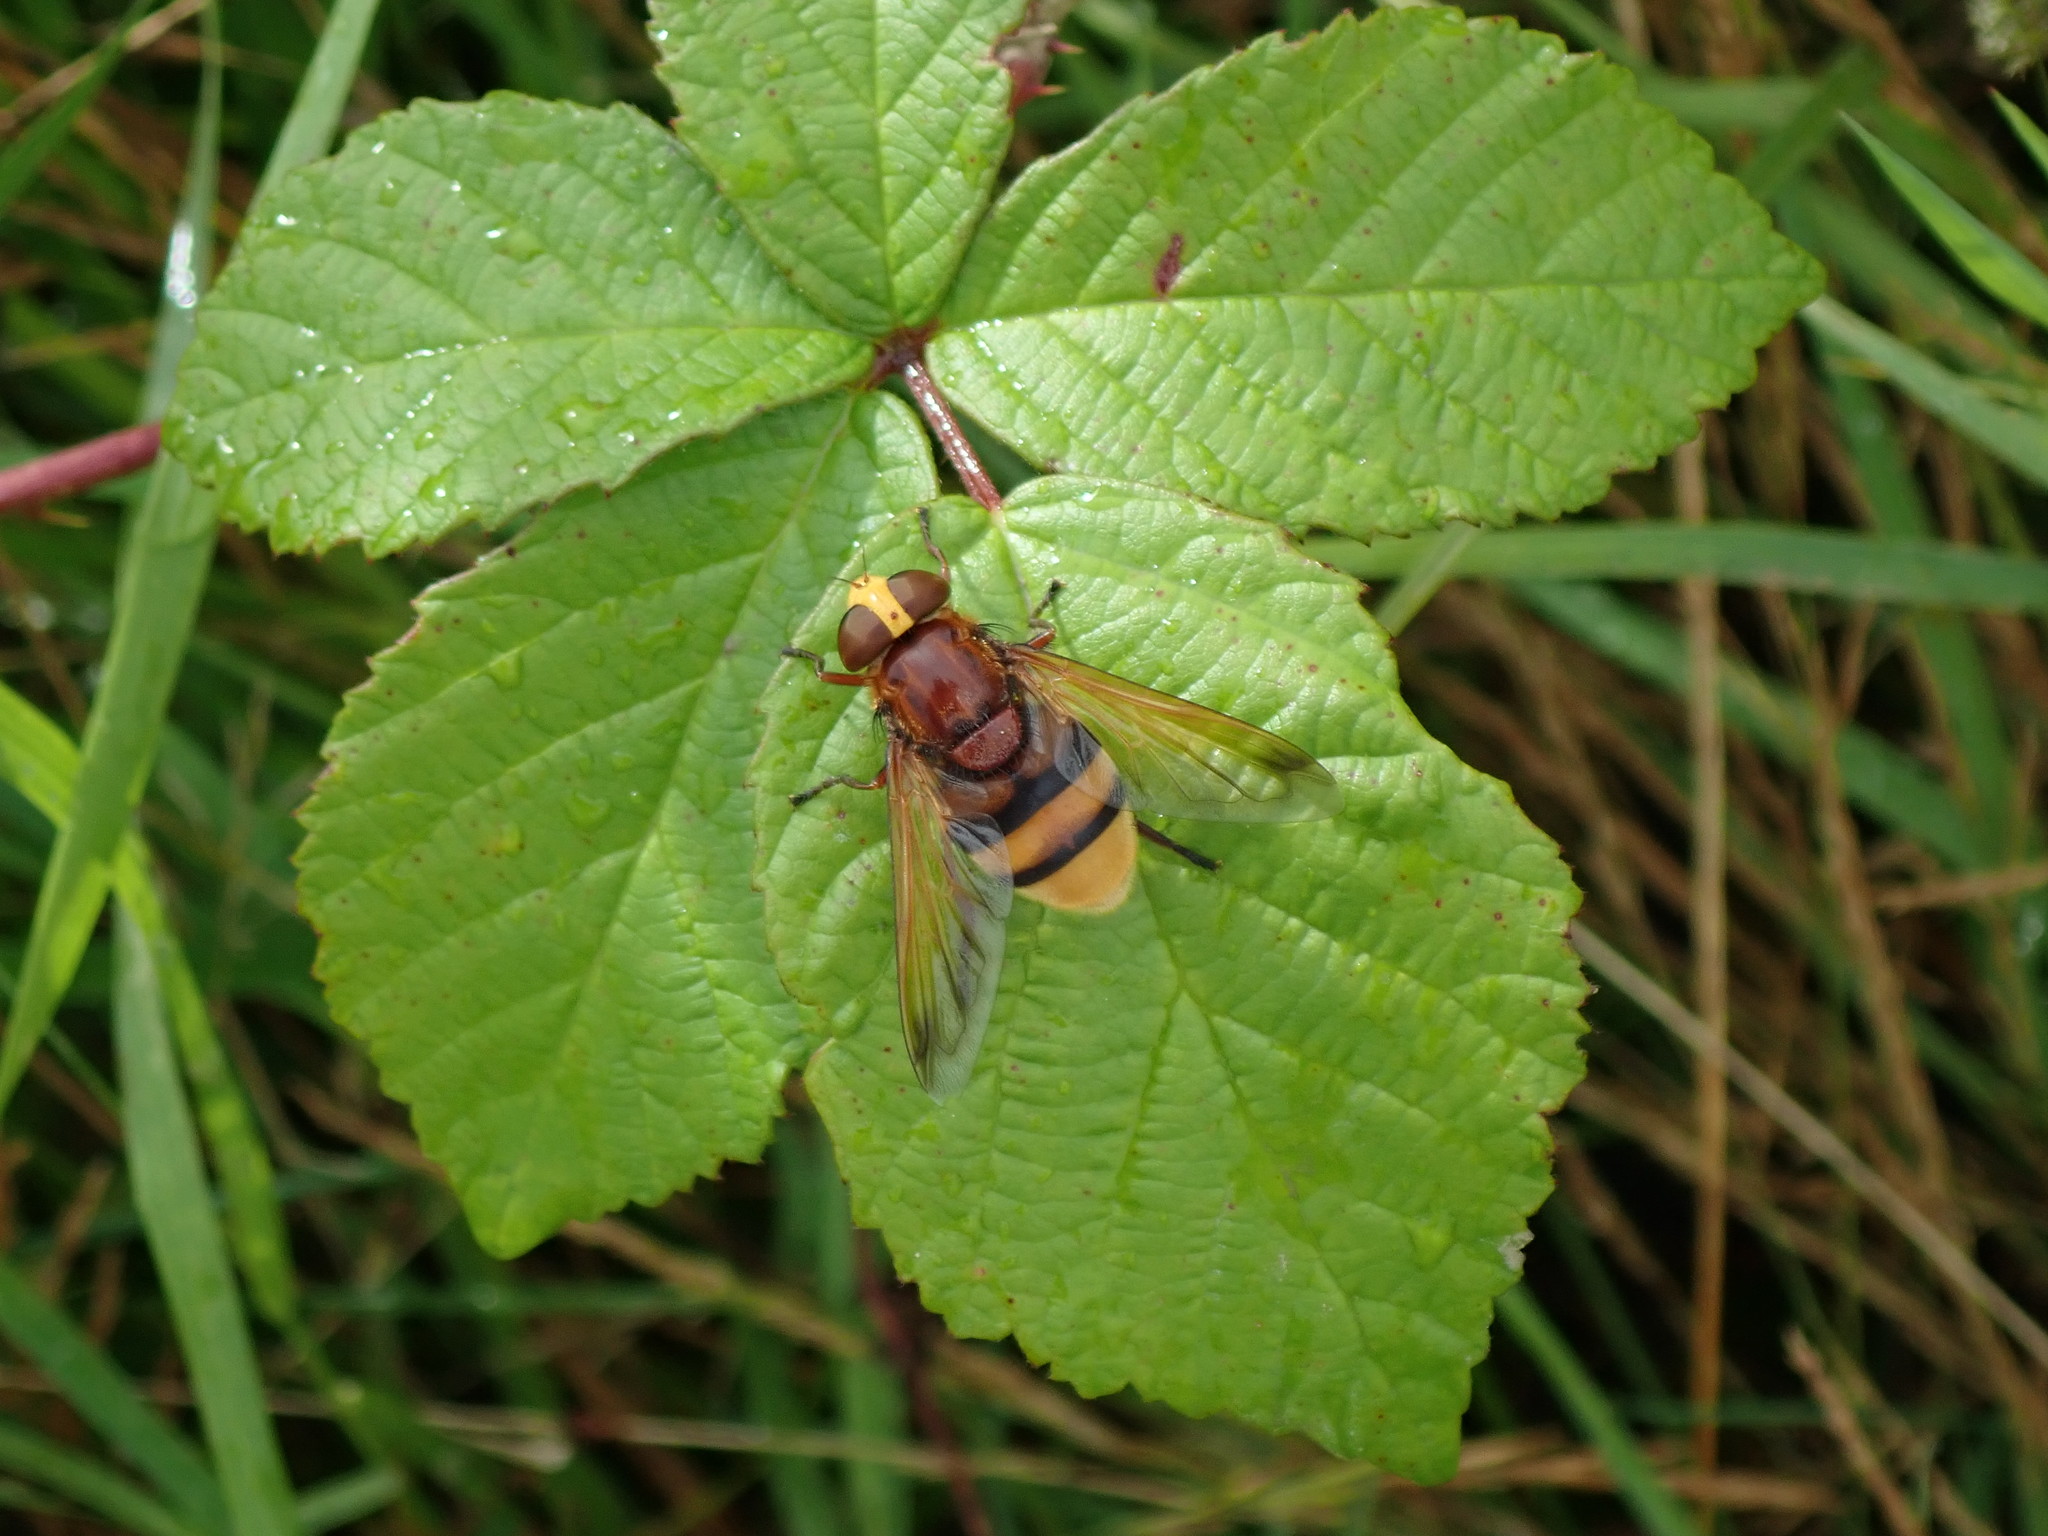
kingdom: Animalia
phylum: Arthropoda
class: Insecta
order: Diptera
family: Syrphidae
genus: Volucella
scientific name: Volucella zonaria
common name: Hornet hoverfly
